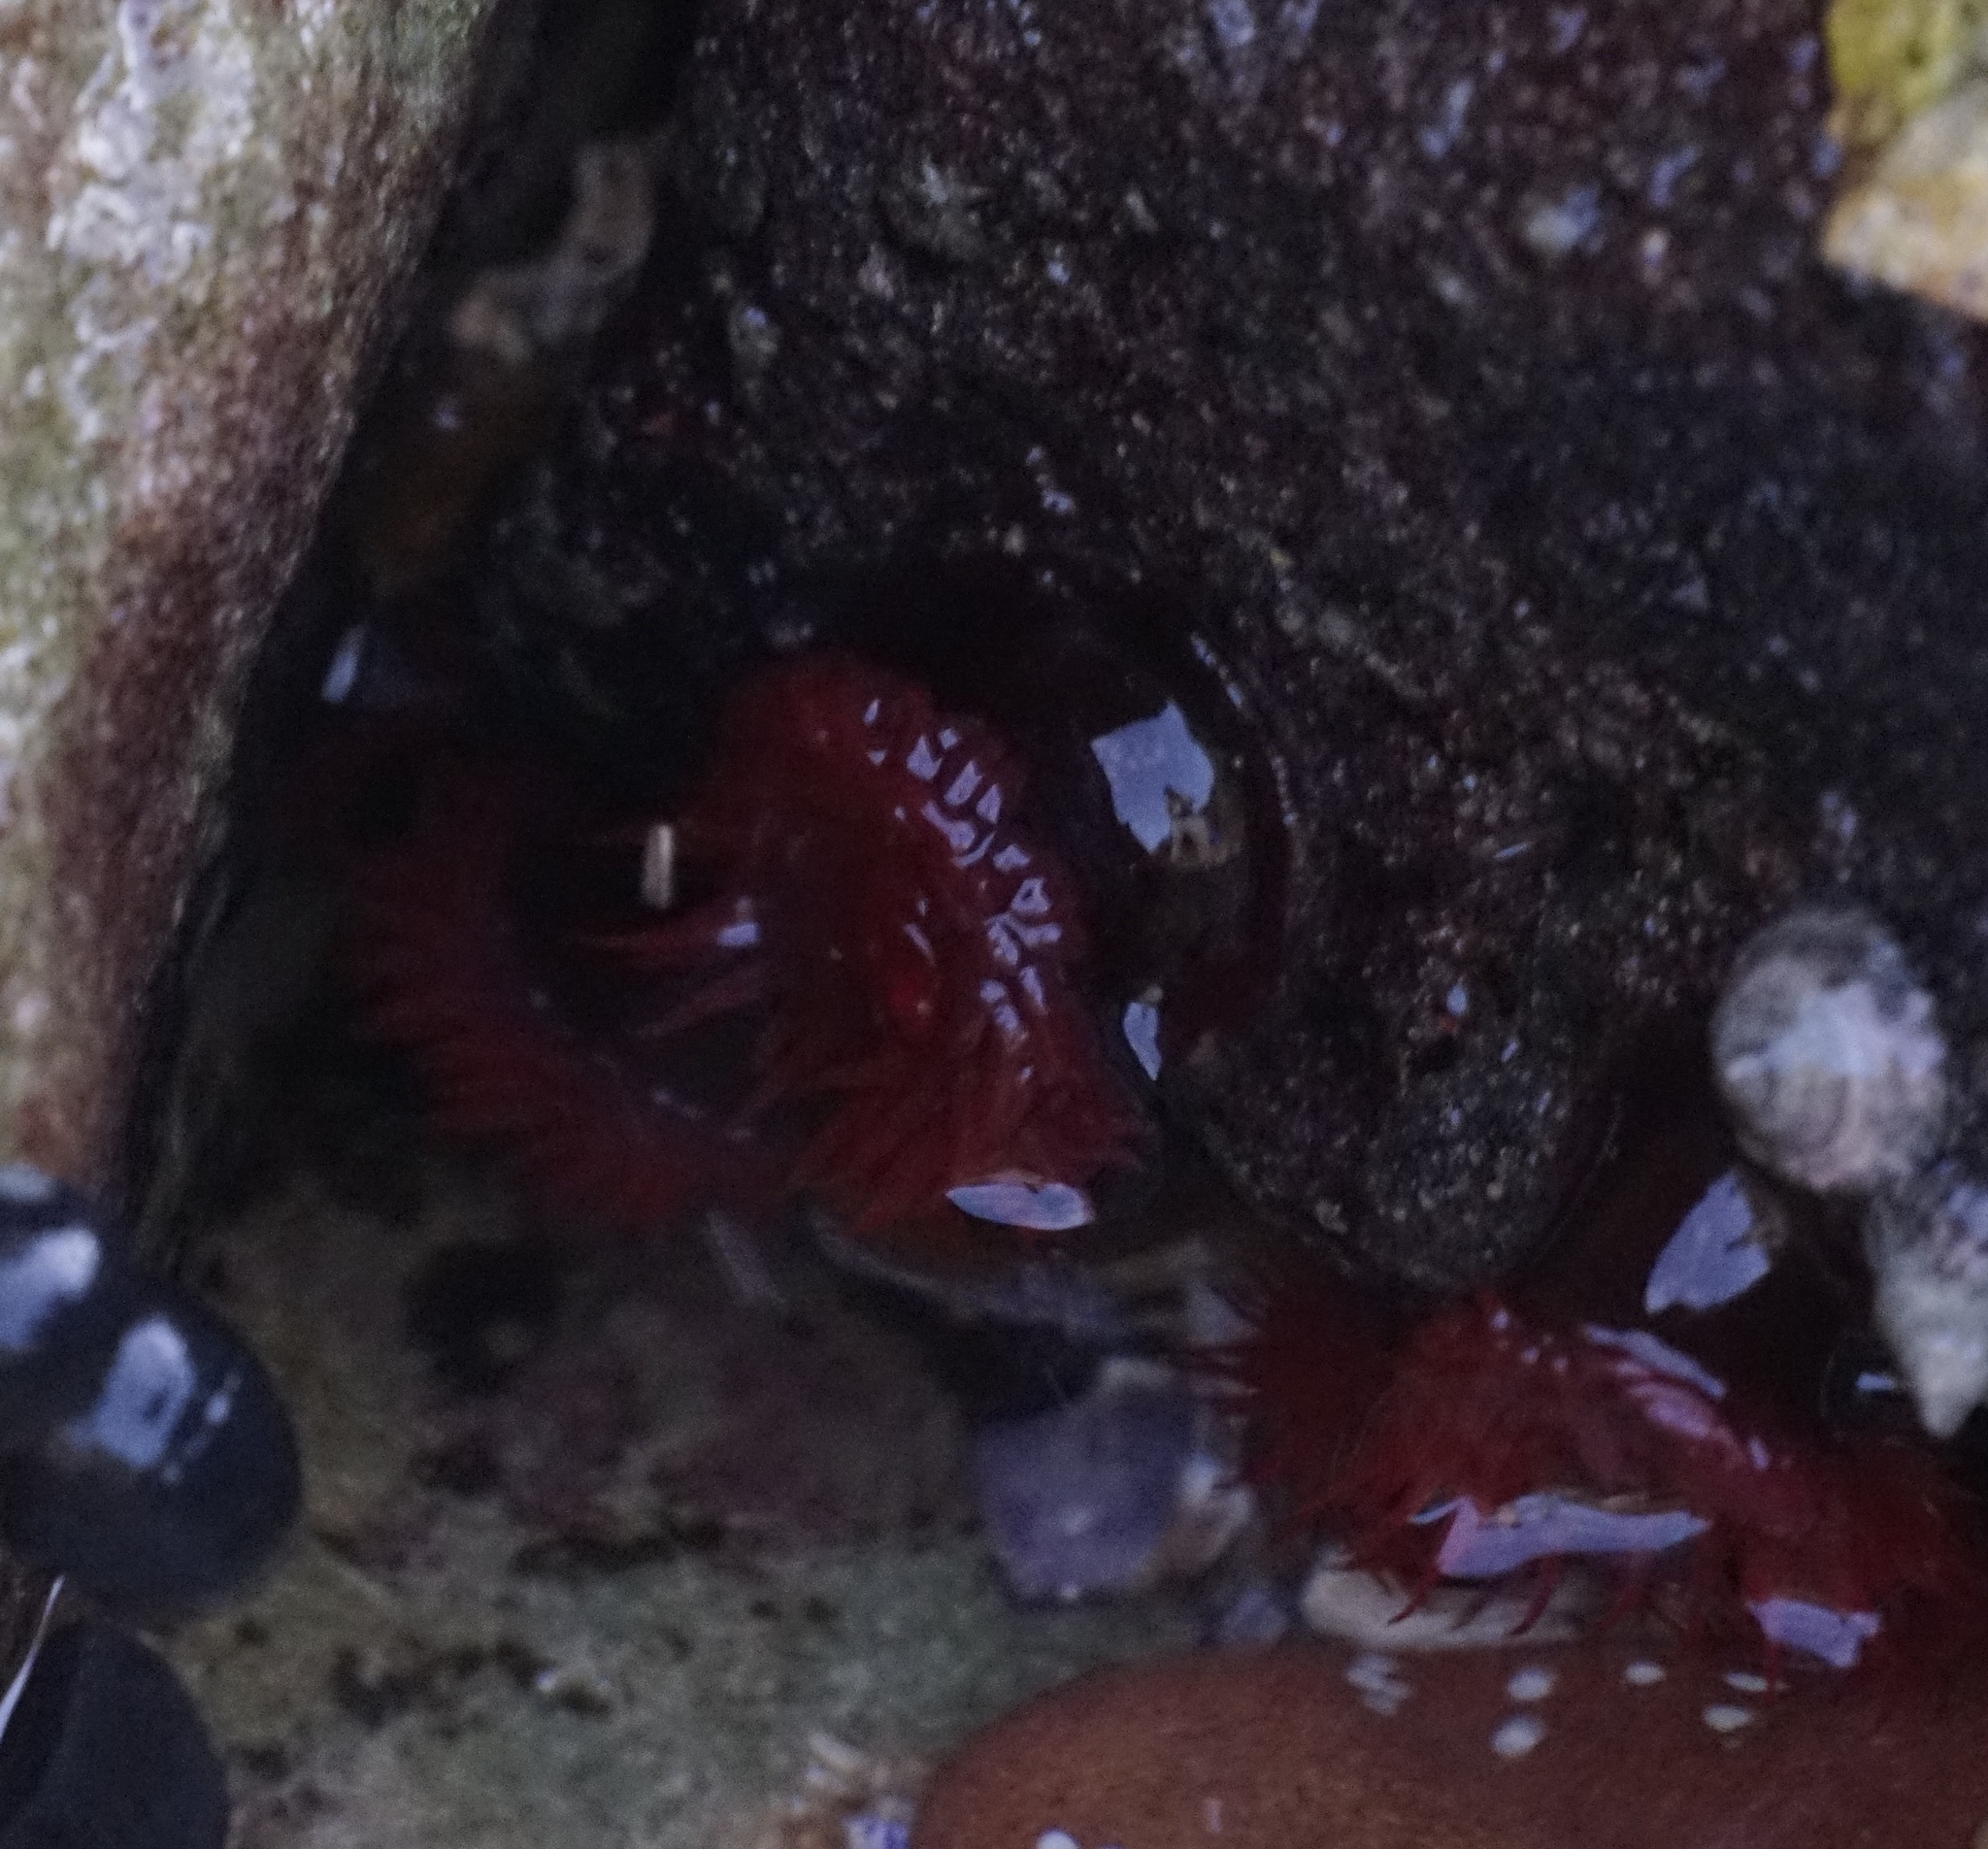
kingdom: Animalia
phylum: Cnidaria
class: Anthozoa
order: Actiniaria
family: Actiniidae
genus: Actinia
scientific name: Actinia tenebrosa
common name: Waratah anemone
